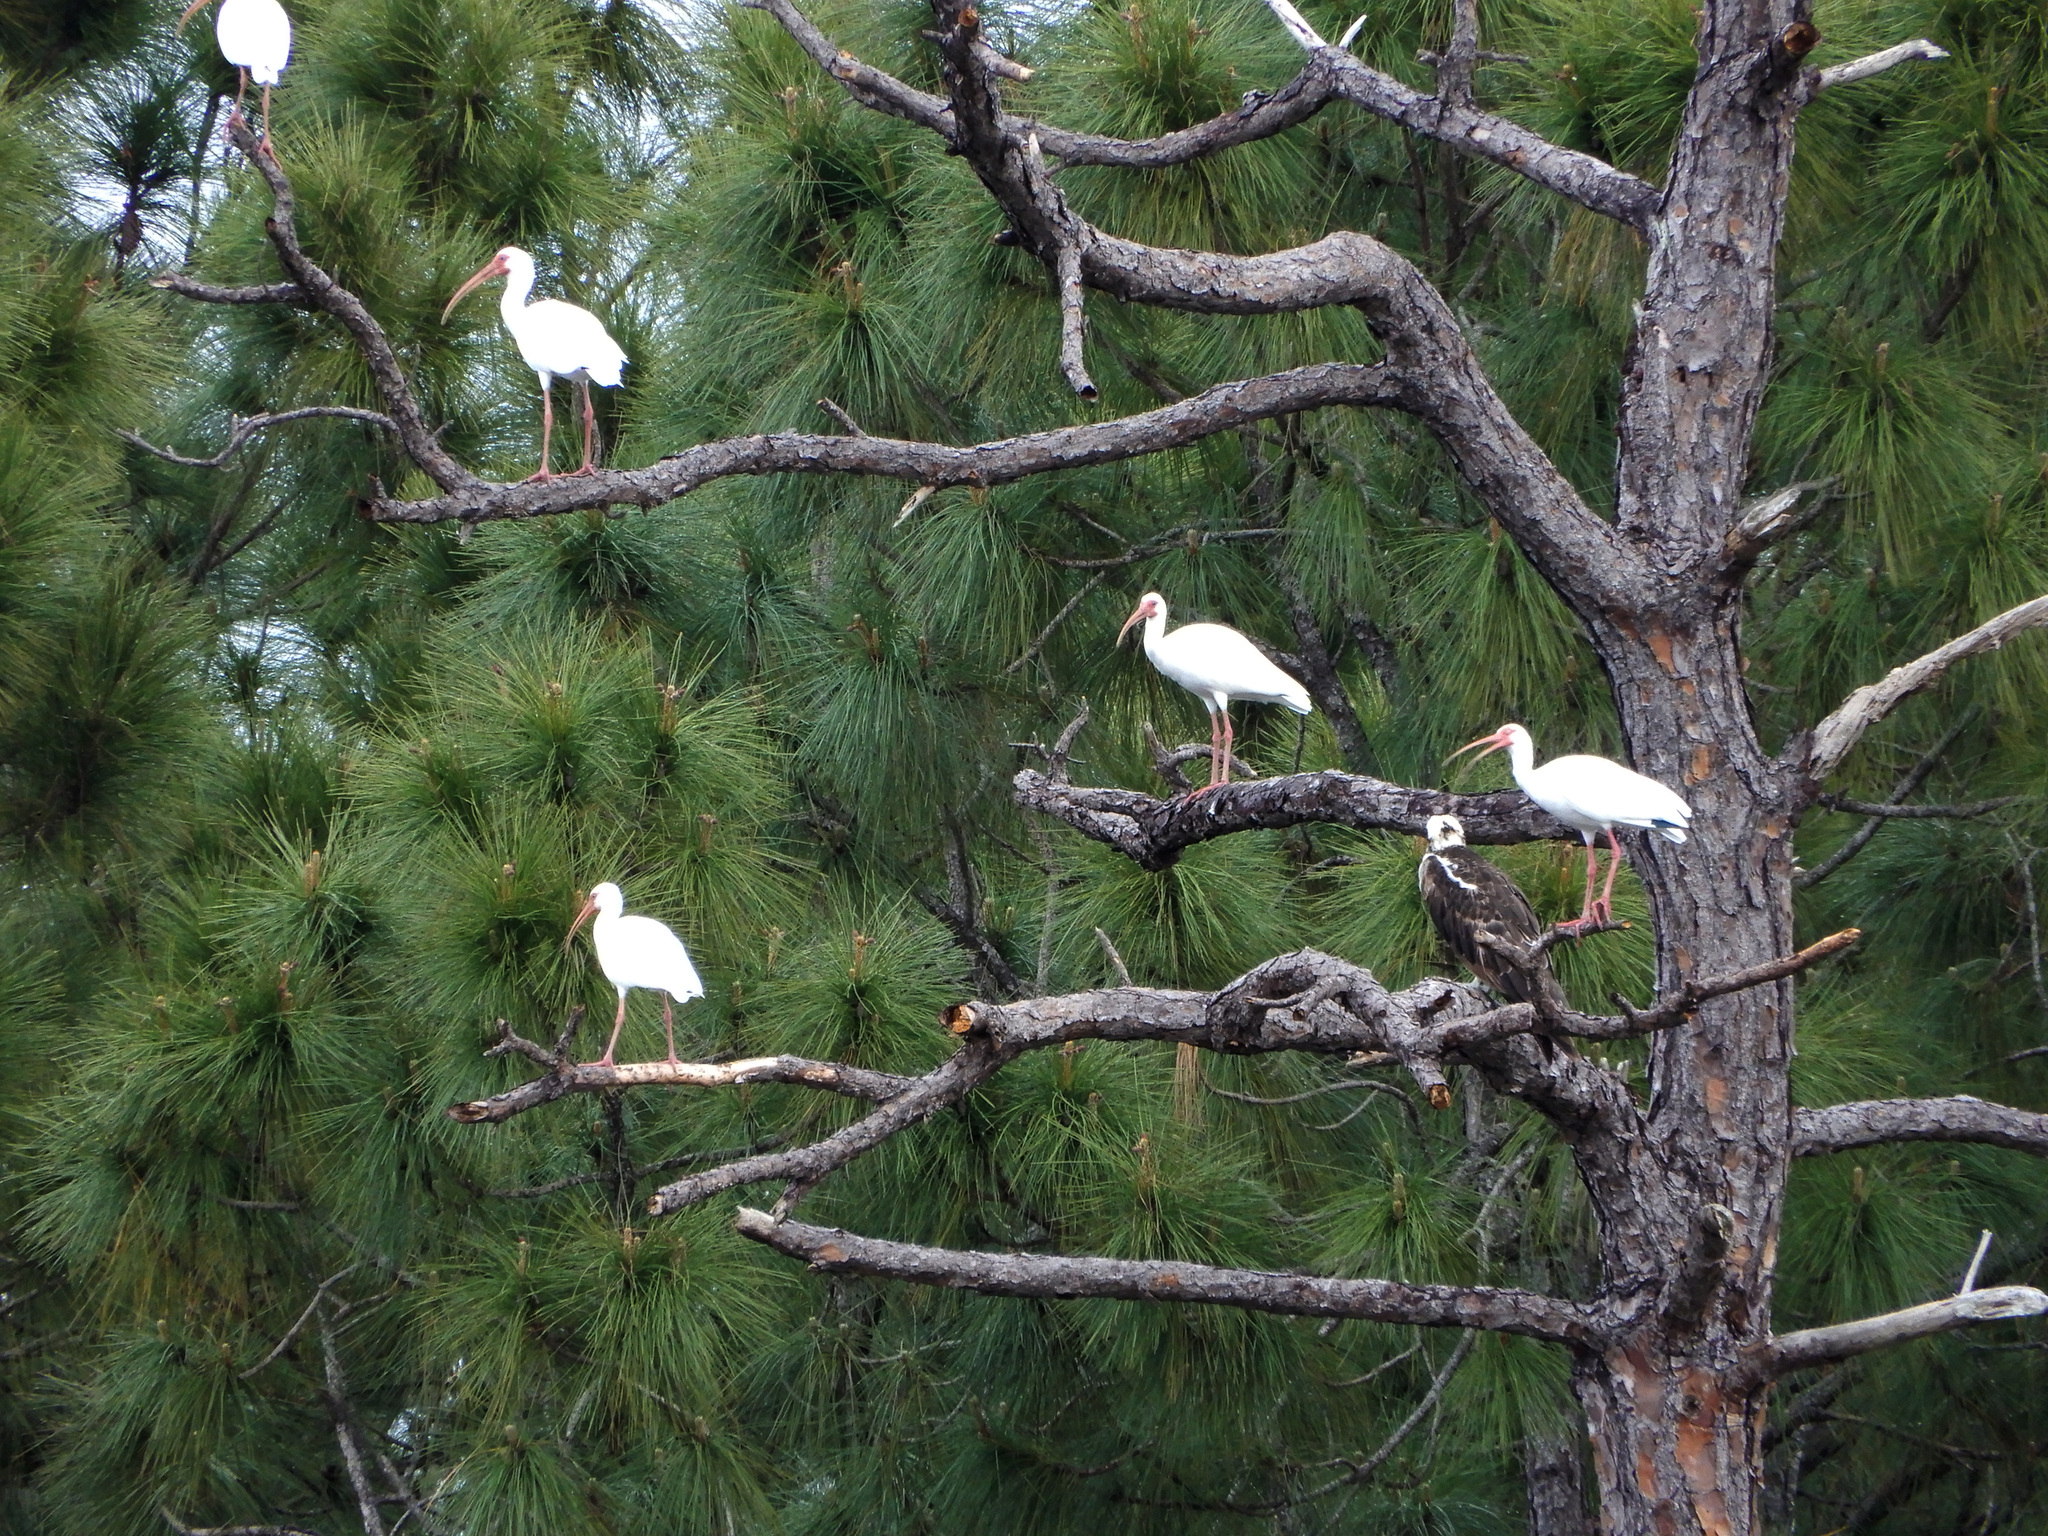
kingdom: Animalia
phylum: Chordata
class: Aves
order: Pelecaniformes
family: Threskiornithidae
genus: Eudocimus
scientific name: Eudocimus albus
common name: White ibis
